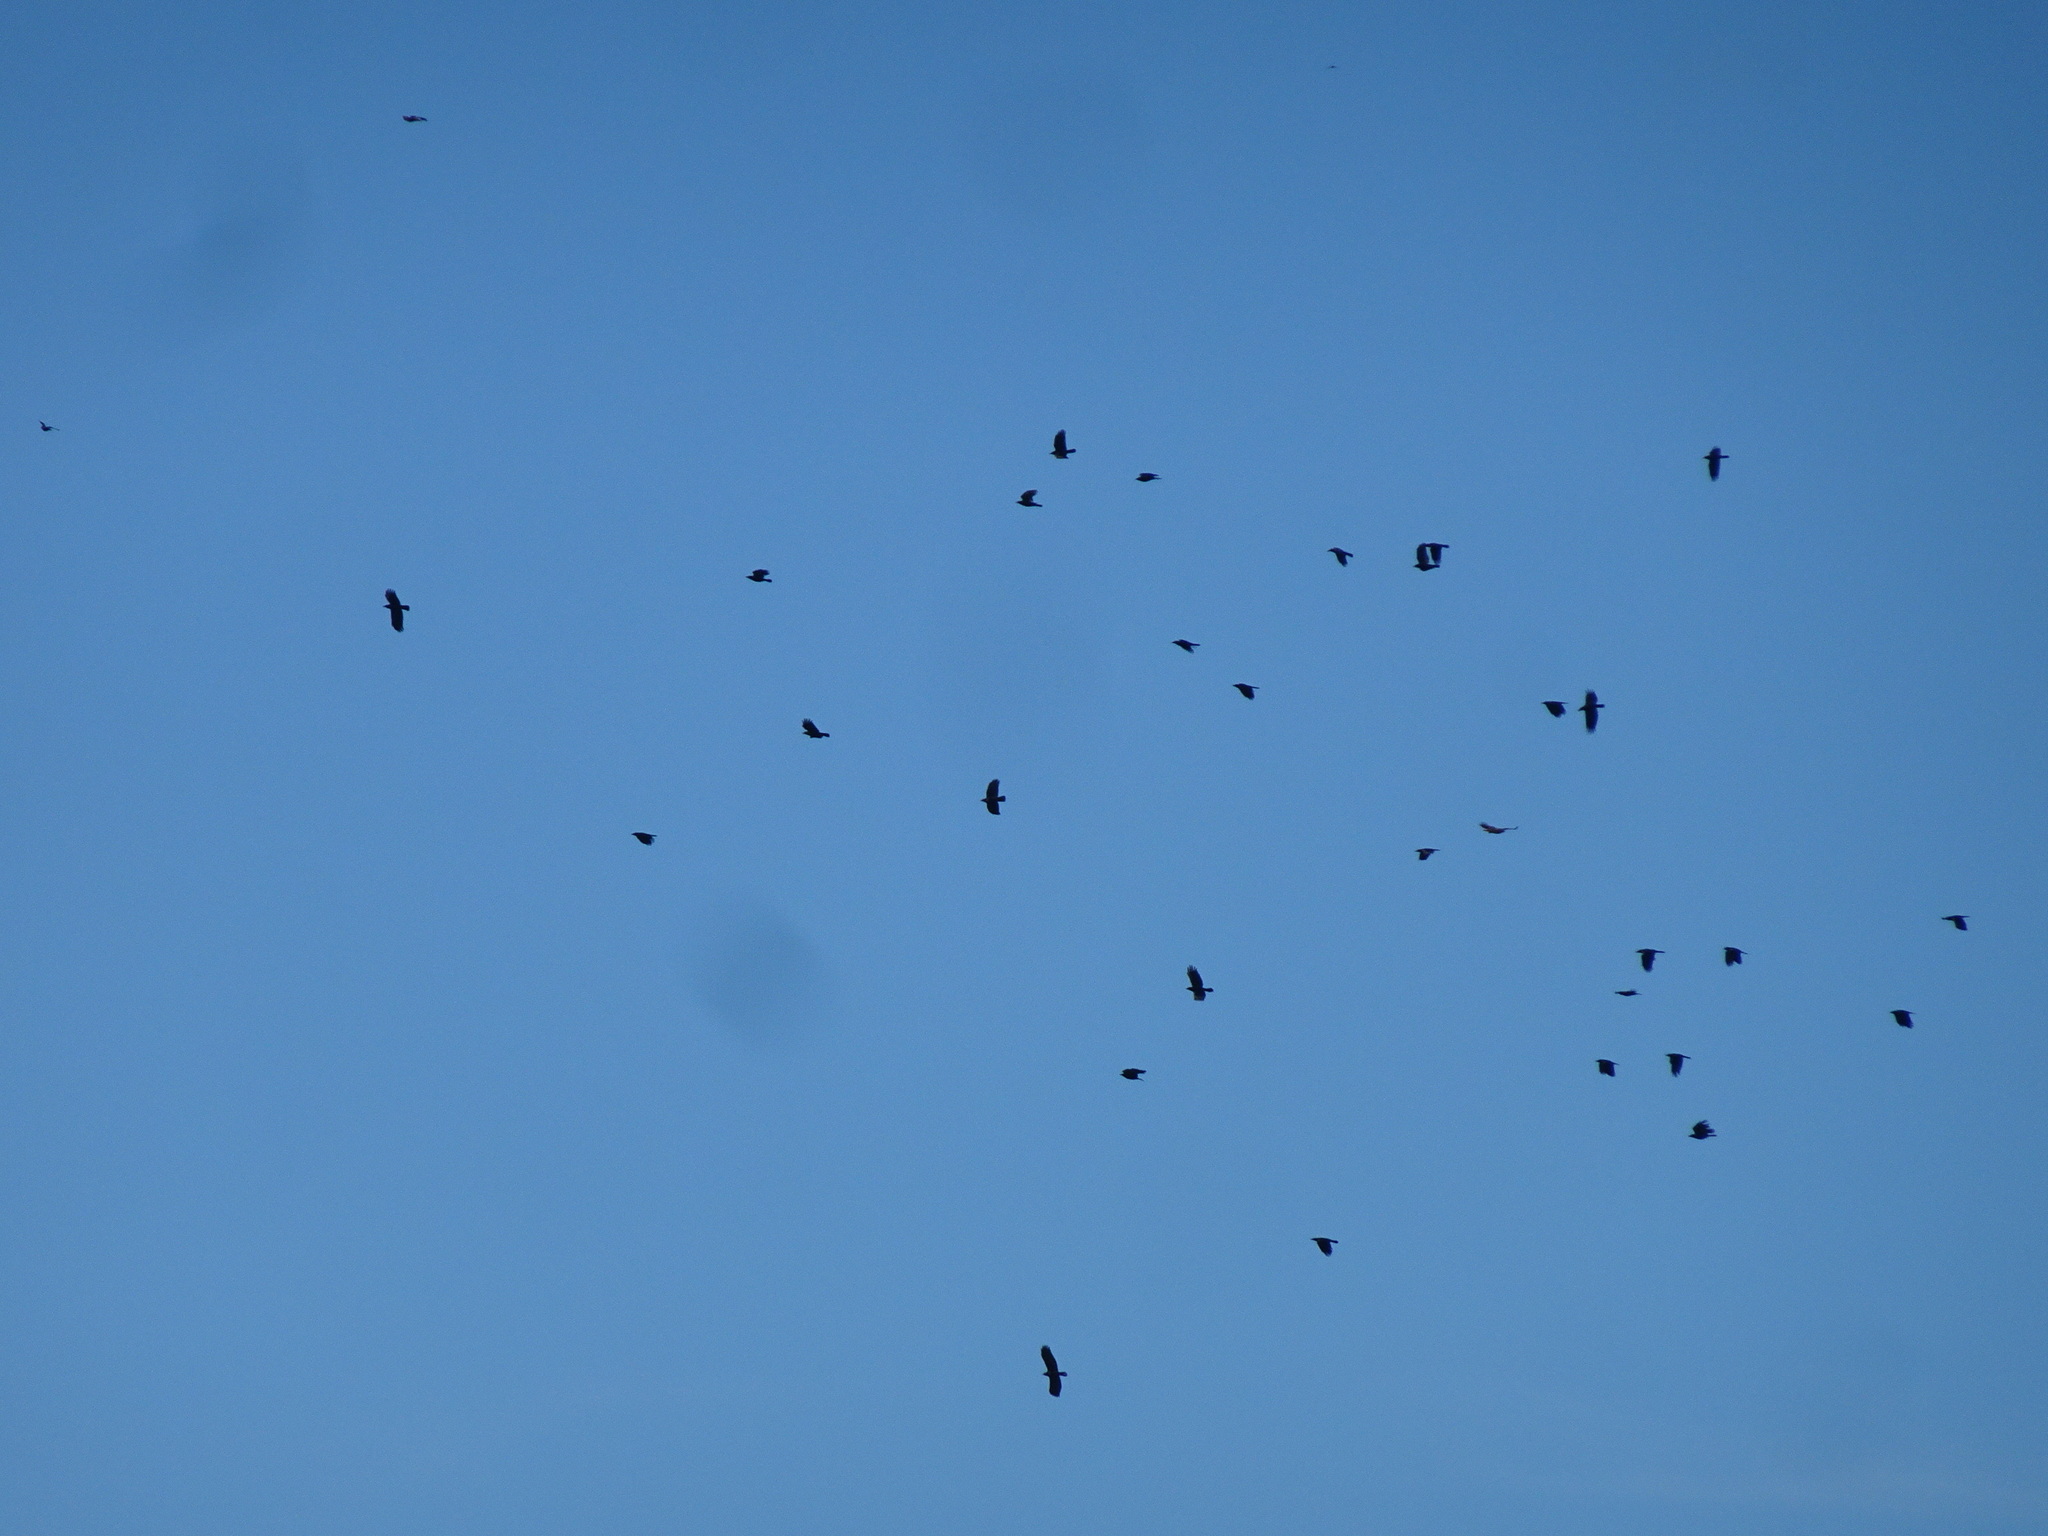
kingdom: Animalia
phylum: Chordata
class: Aves
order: Passeriformes
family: Corvidae
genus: Corvus
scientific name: Corvus brachyrhynchos
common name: American crow
